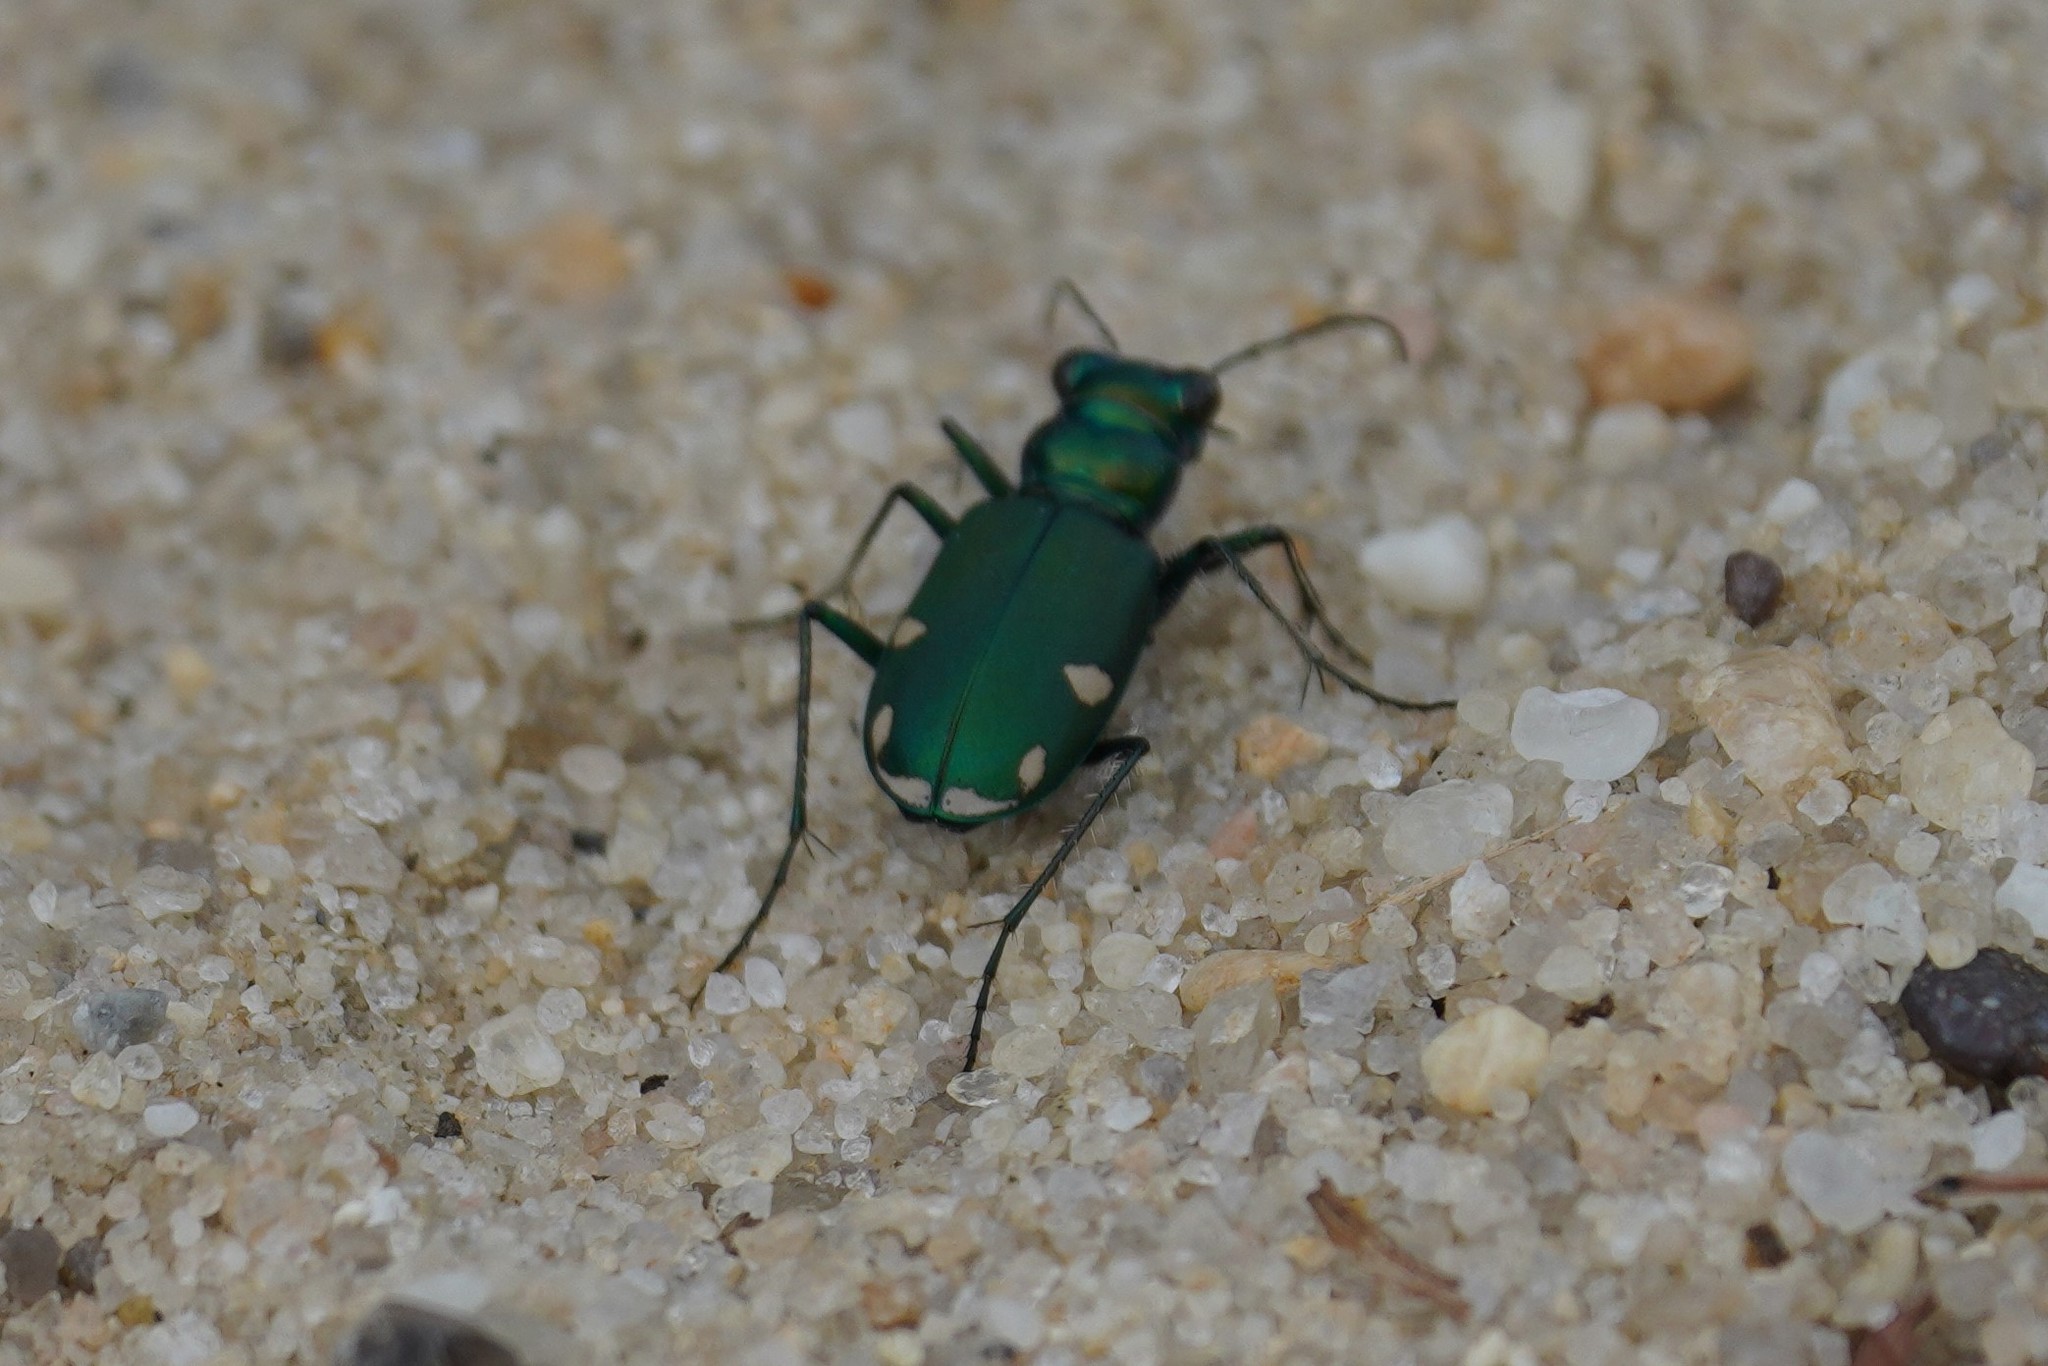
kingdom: Animalia
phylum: Arthropoda
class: Insecta
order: Coleoptera
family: Carabidae
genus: Cicindela
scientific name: Cicindela scutellaris
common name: Festive tiger beetle
